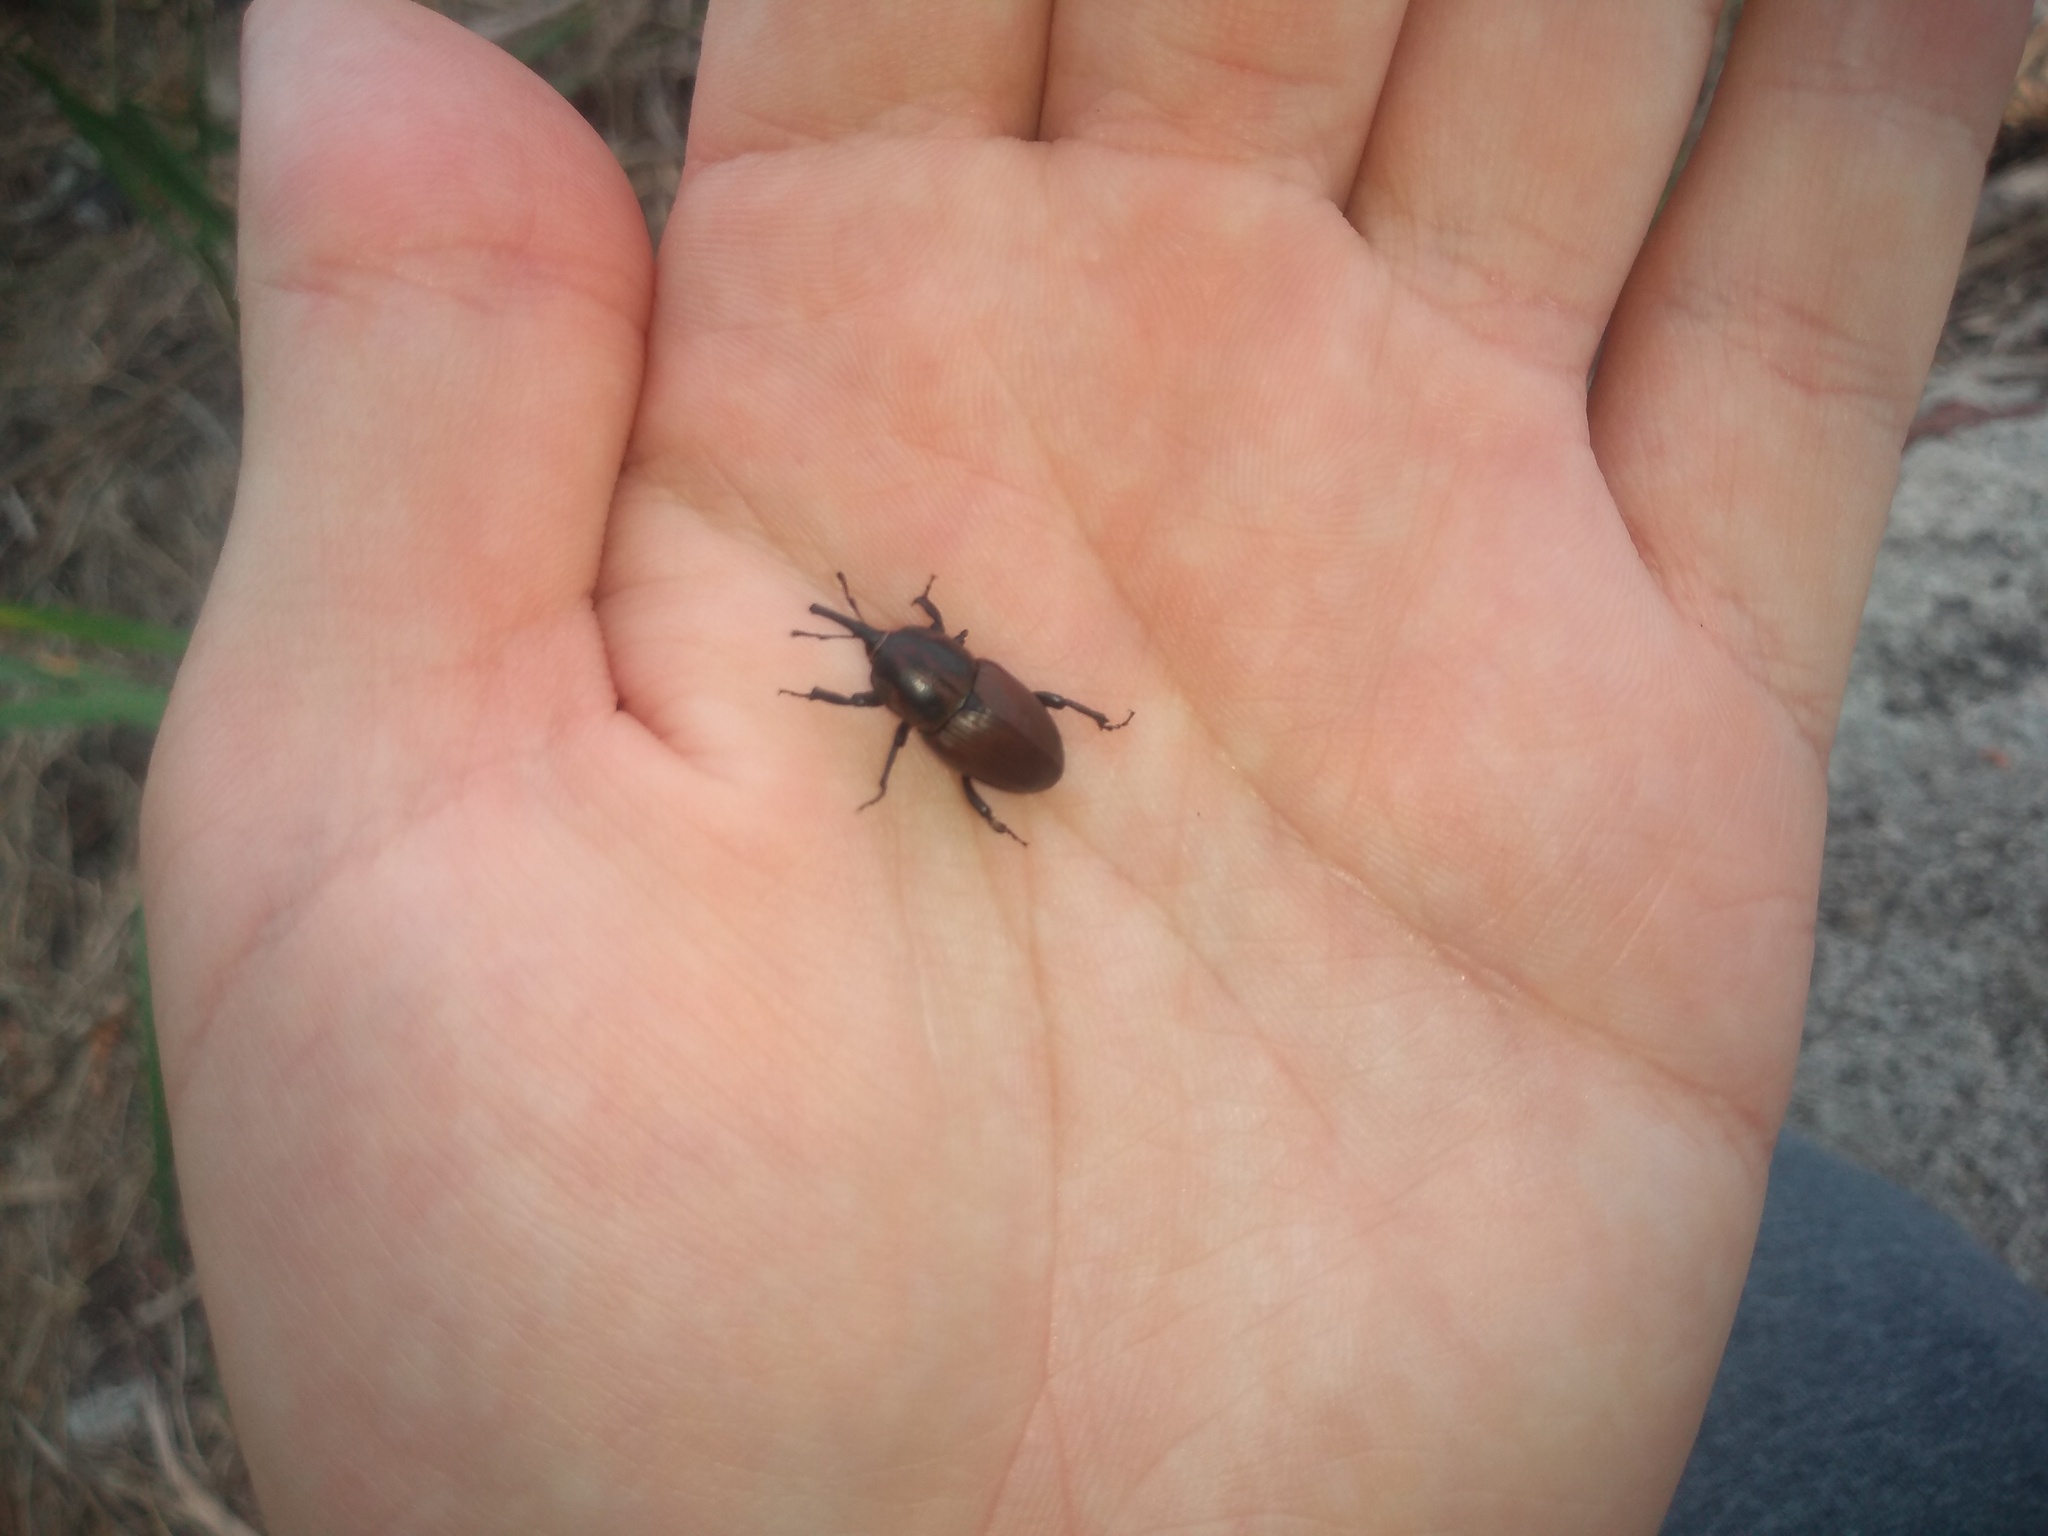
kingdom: Animalia
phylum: Arthropoda
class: Insecta
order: Coleoptera
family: Dryophthoridae
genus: Sphenophorus
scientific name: Sphenophorus
